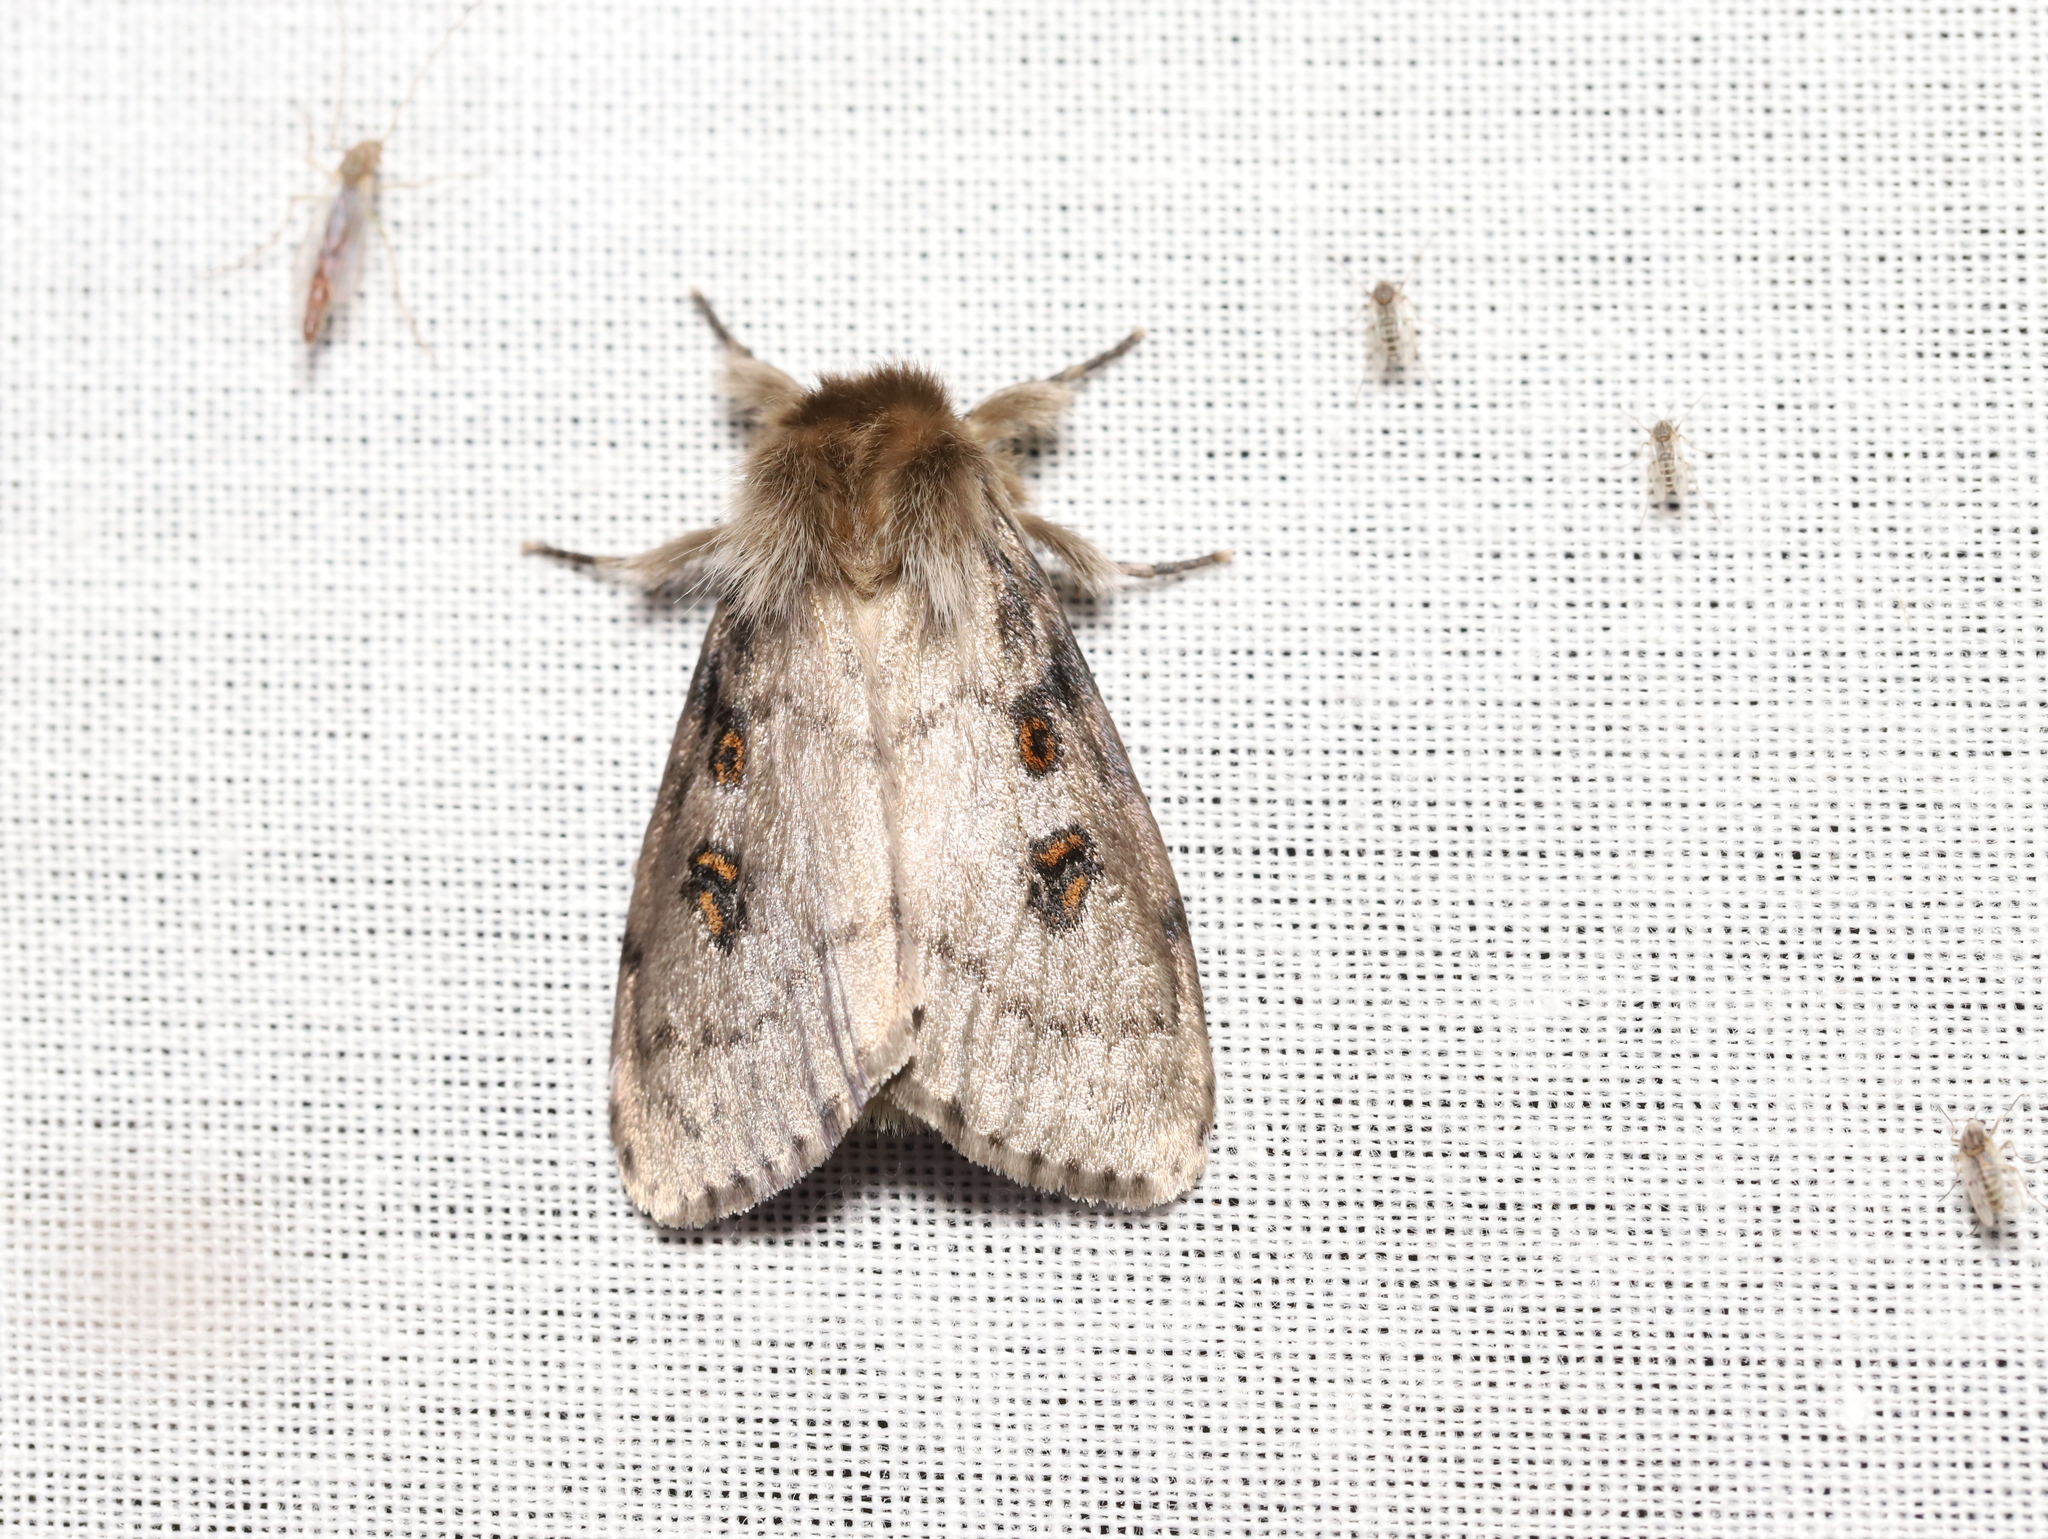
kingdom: Animalia
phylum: Arthropoda
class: Insecta
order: Lepidoptera
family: Erebidae
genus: Leptocneria
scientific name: Leptocneria reducta
